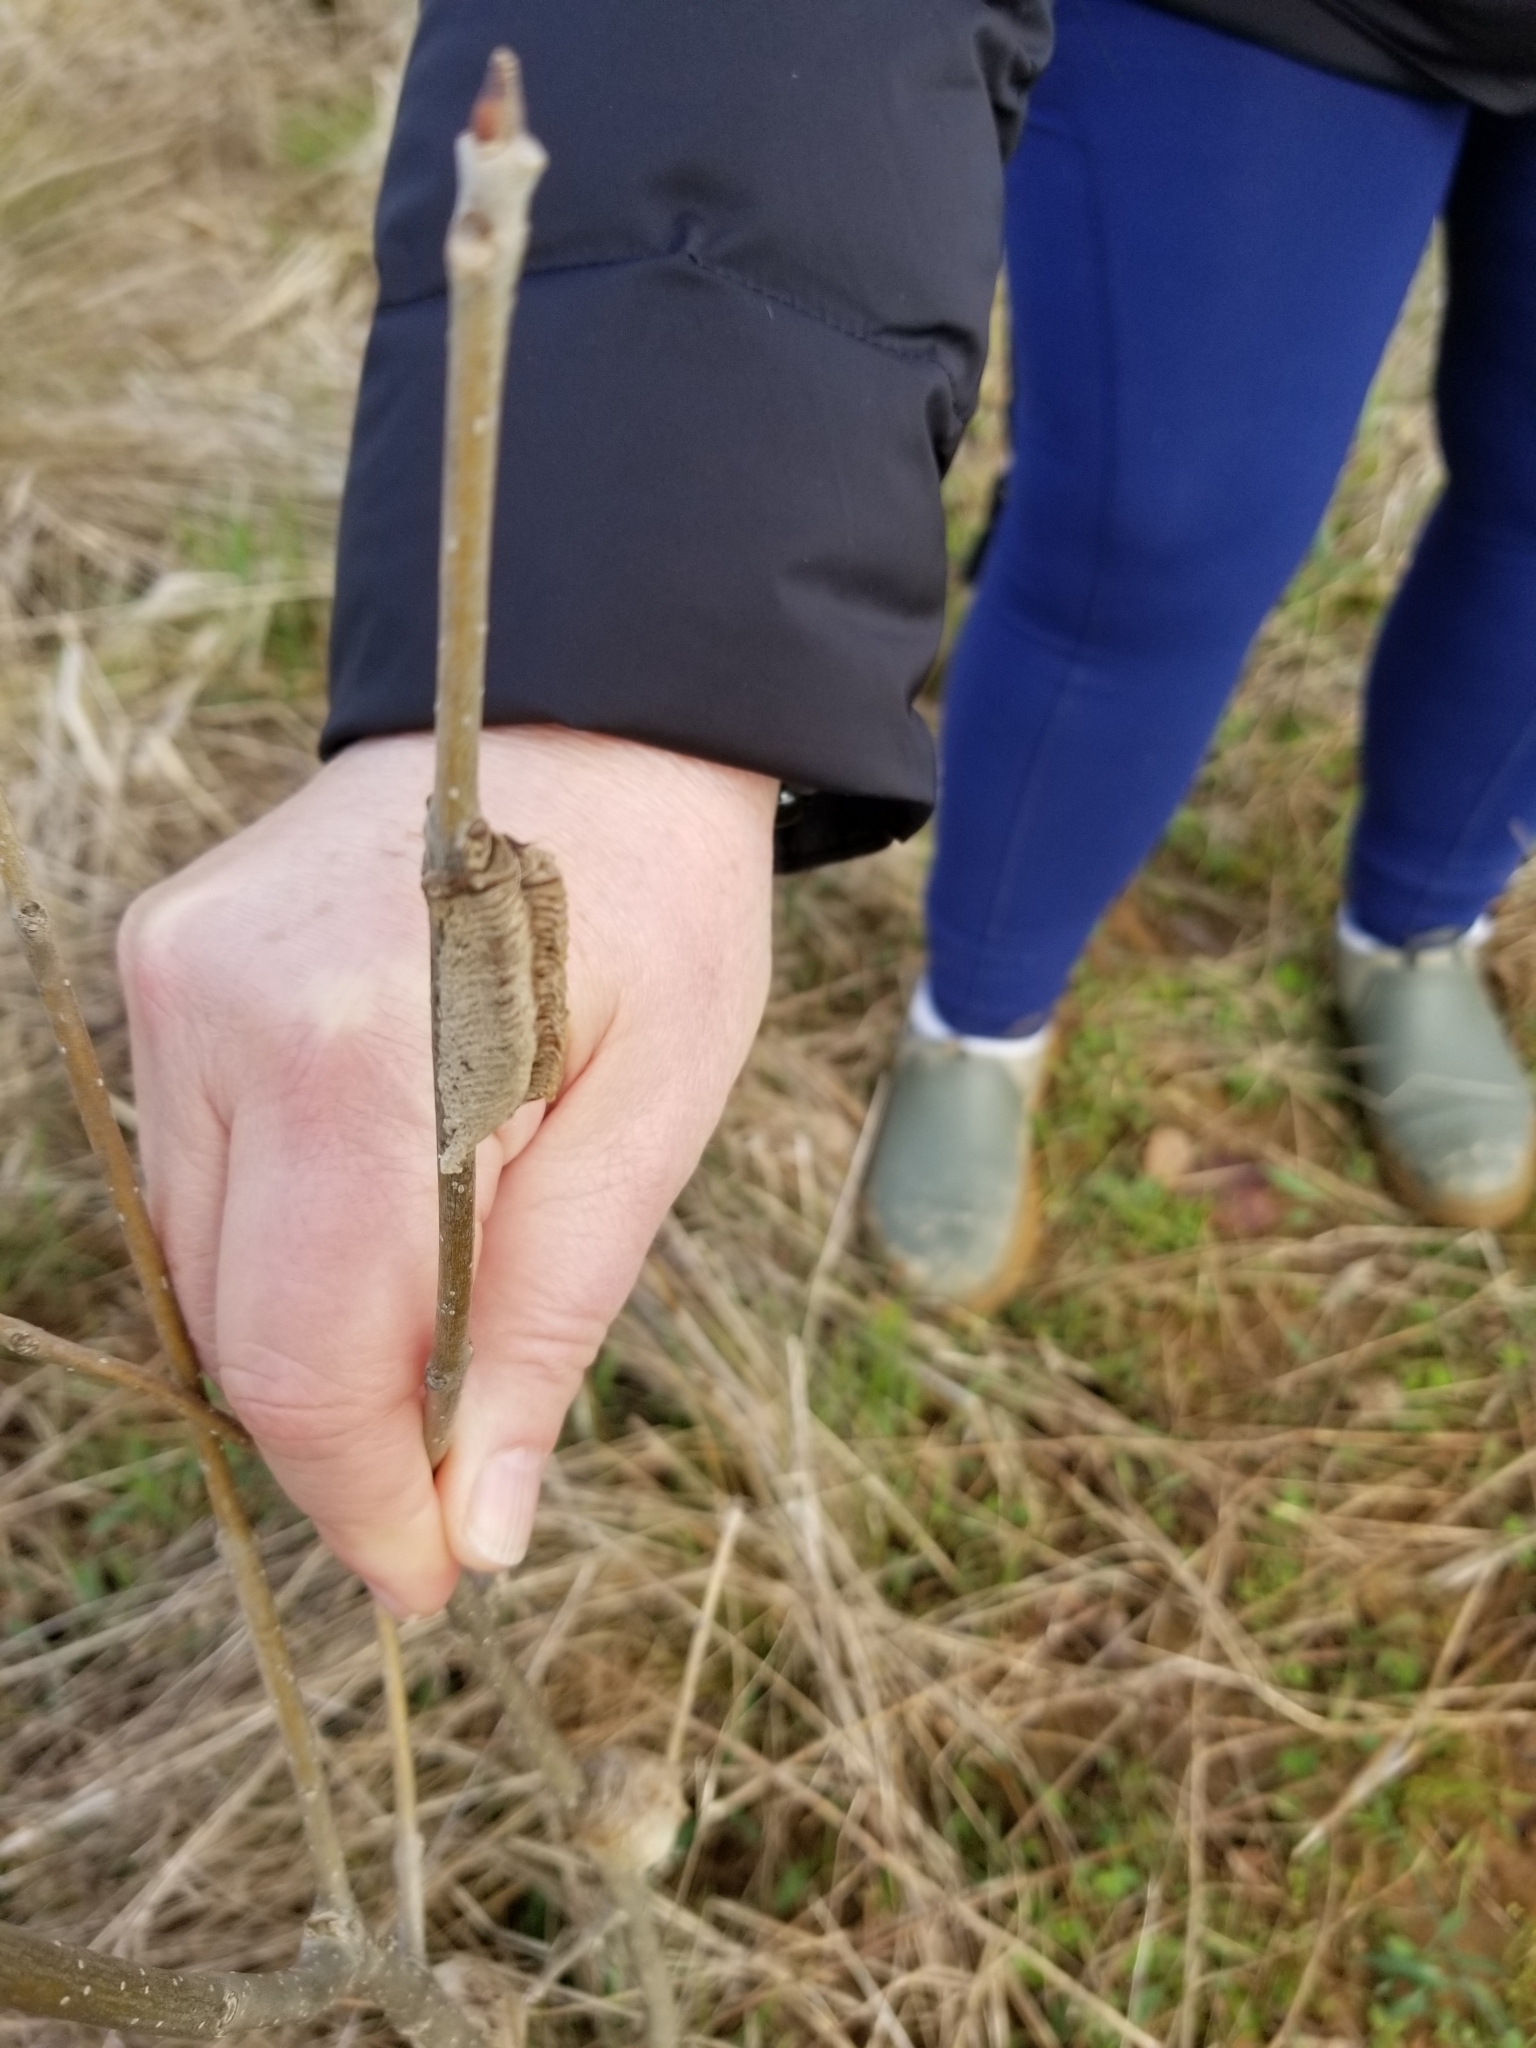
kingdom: Animalia
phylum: Arthropoda
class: Insecta
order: Mantodea
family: Mantidae
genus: Tenodera
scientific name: Tenodera angustipennis
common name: Asian mantis
